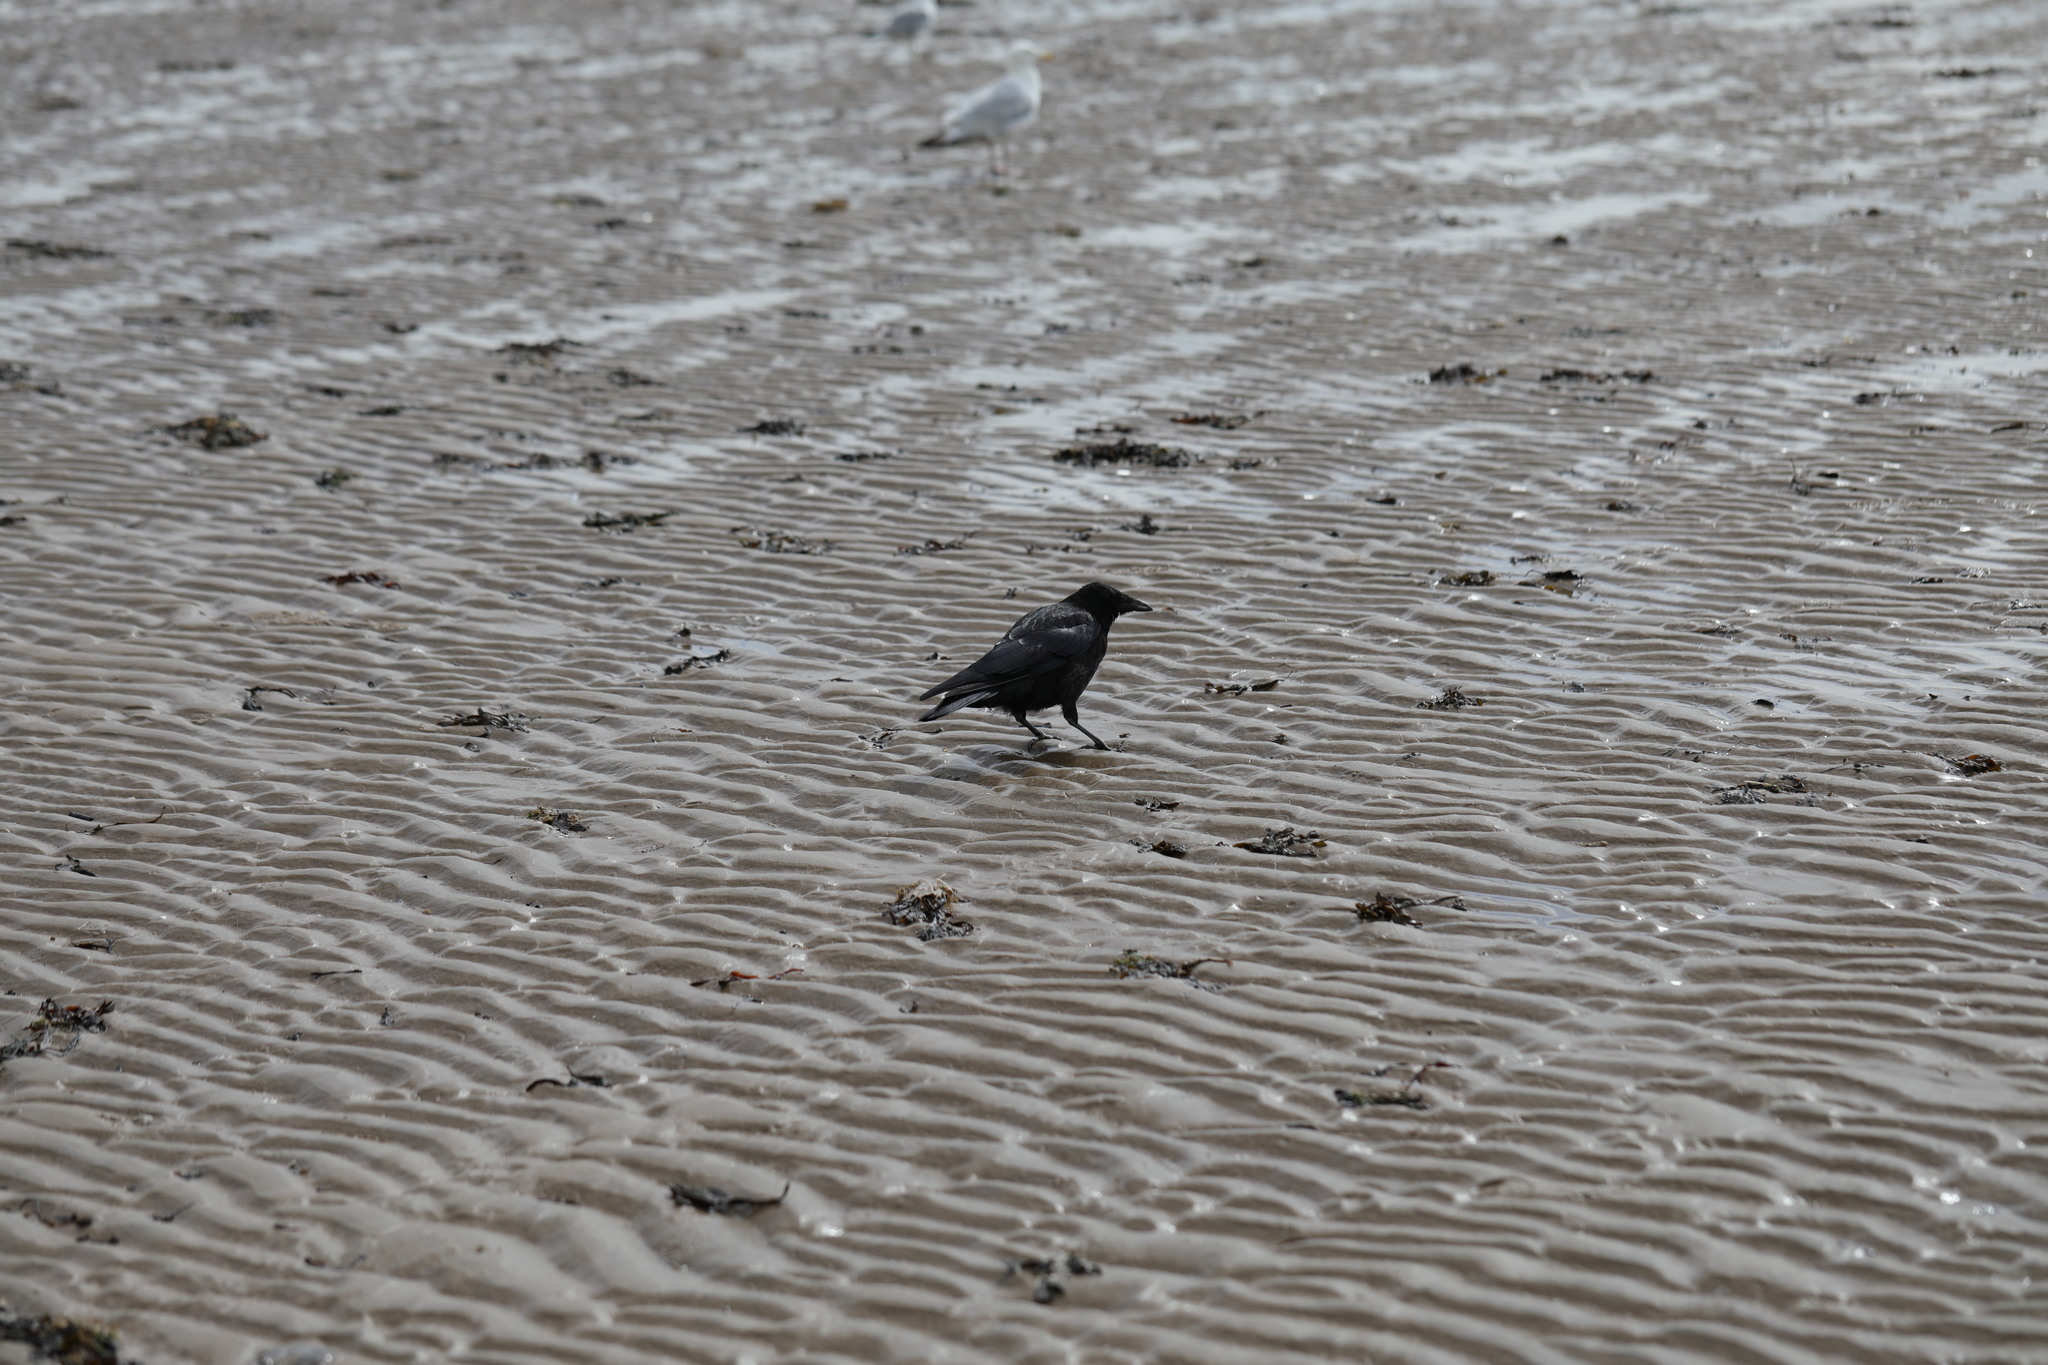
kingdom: Animalia
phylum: Chordata
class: Aves
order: Passeriformes
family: Corvidae
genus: Corvus
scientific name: Corvus corone
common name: Carrion crow
